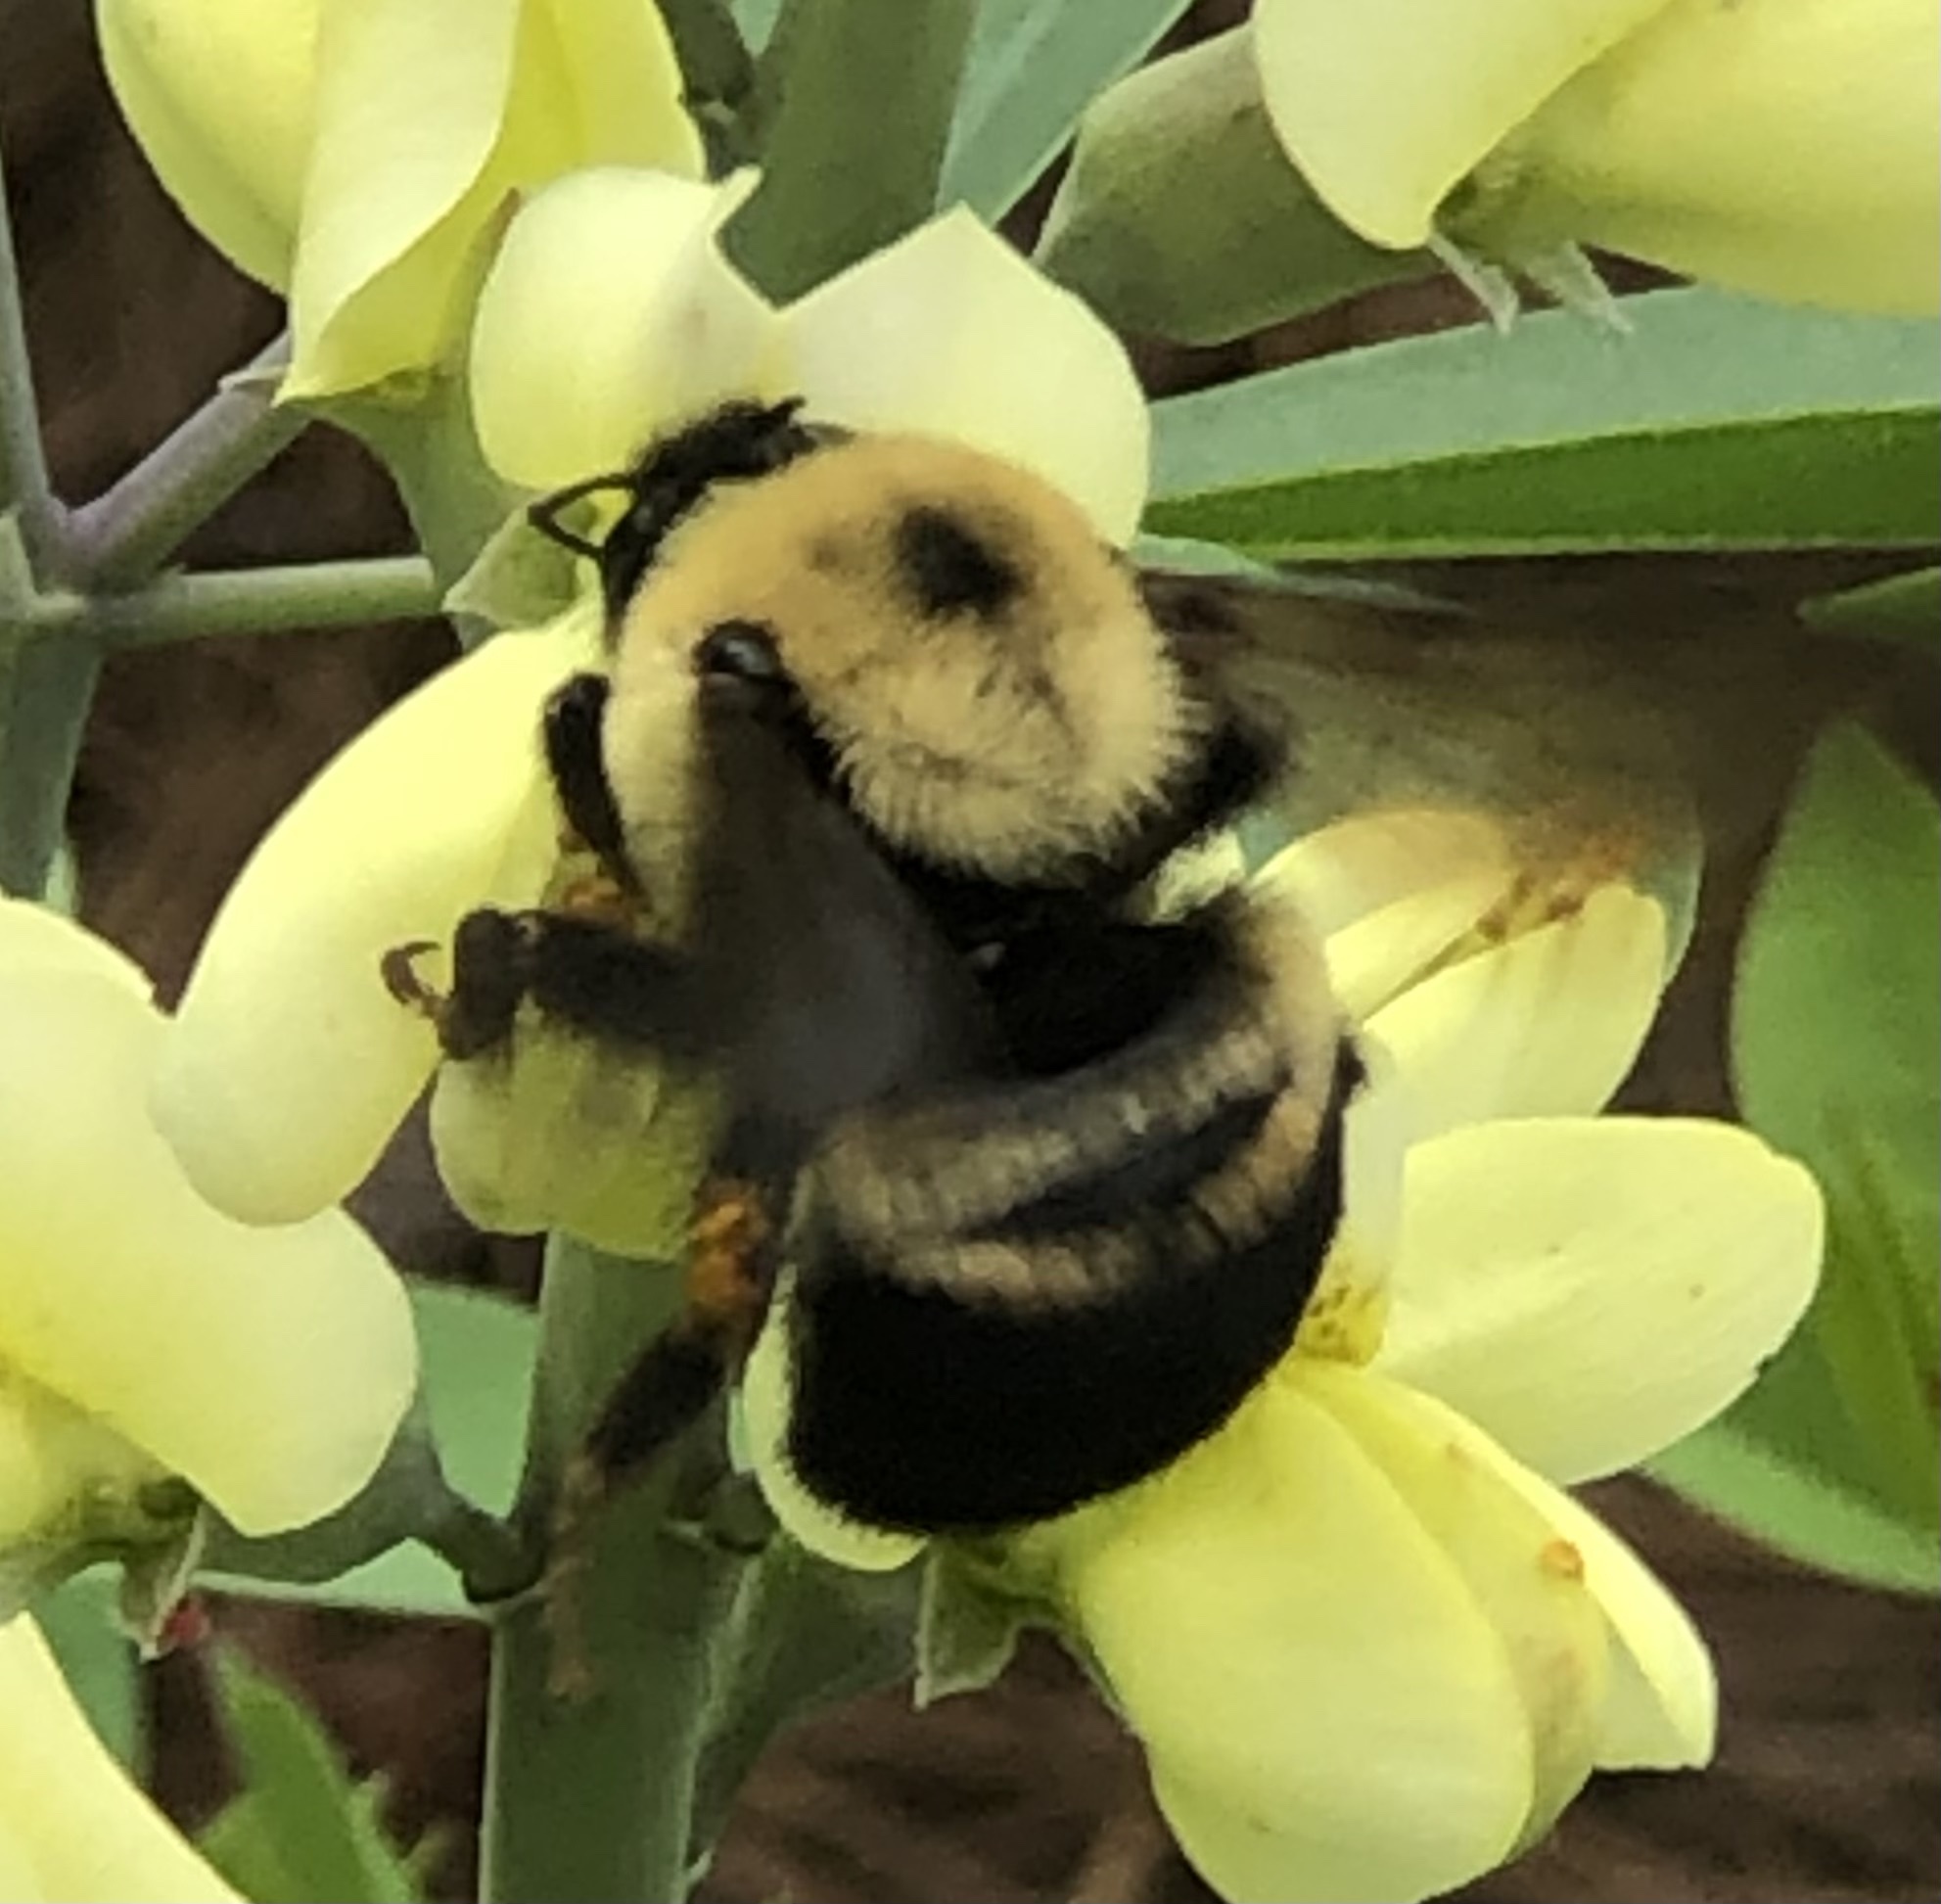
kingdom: Animalia
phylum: Arthropoda
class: Insecta
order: Hymenoptera
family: Apidae
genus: Bombus
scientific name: Bombus griseocollis
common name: Brown-belted bumble bee
